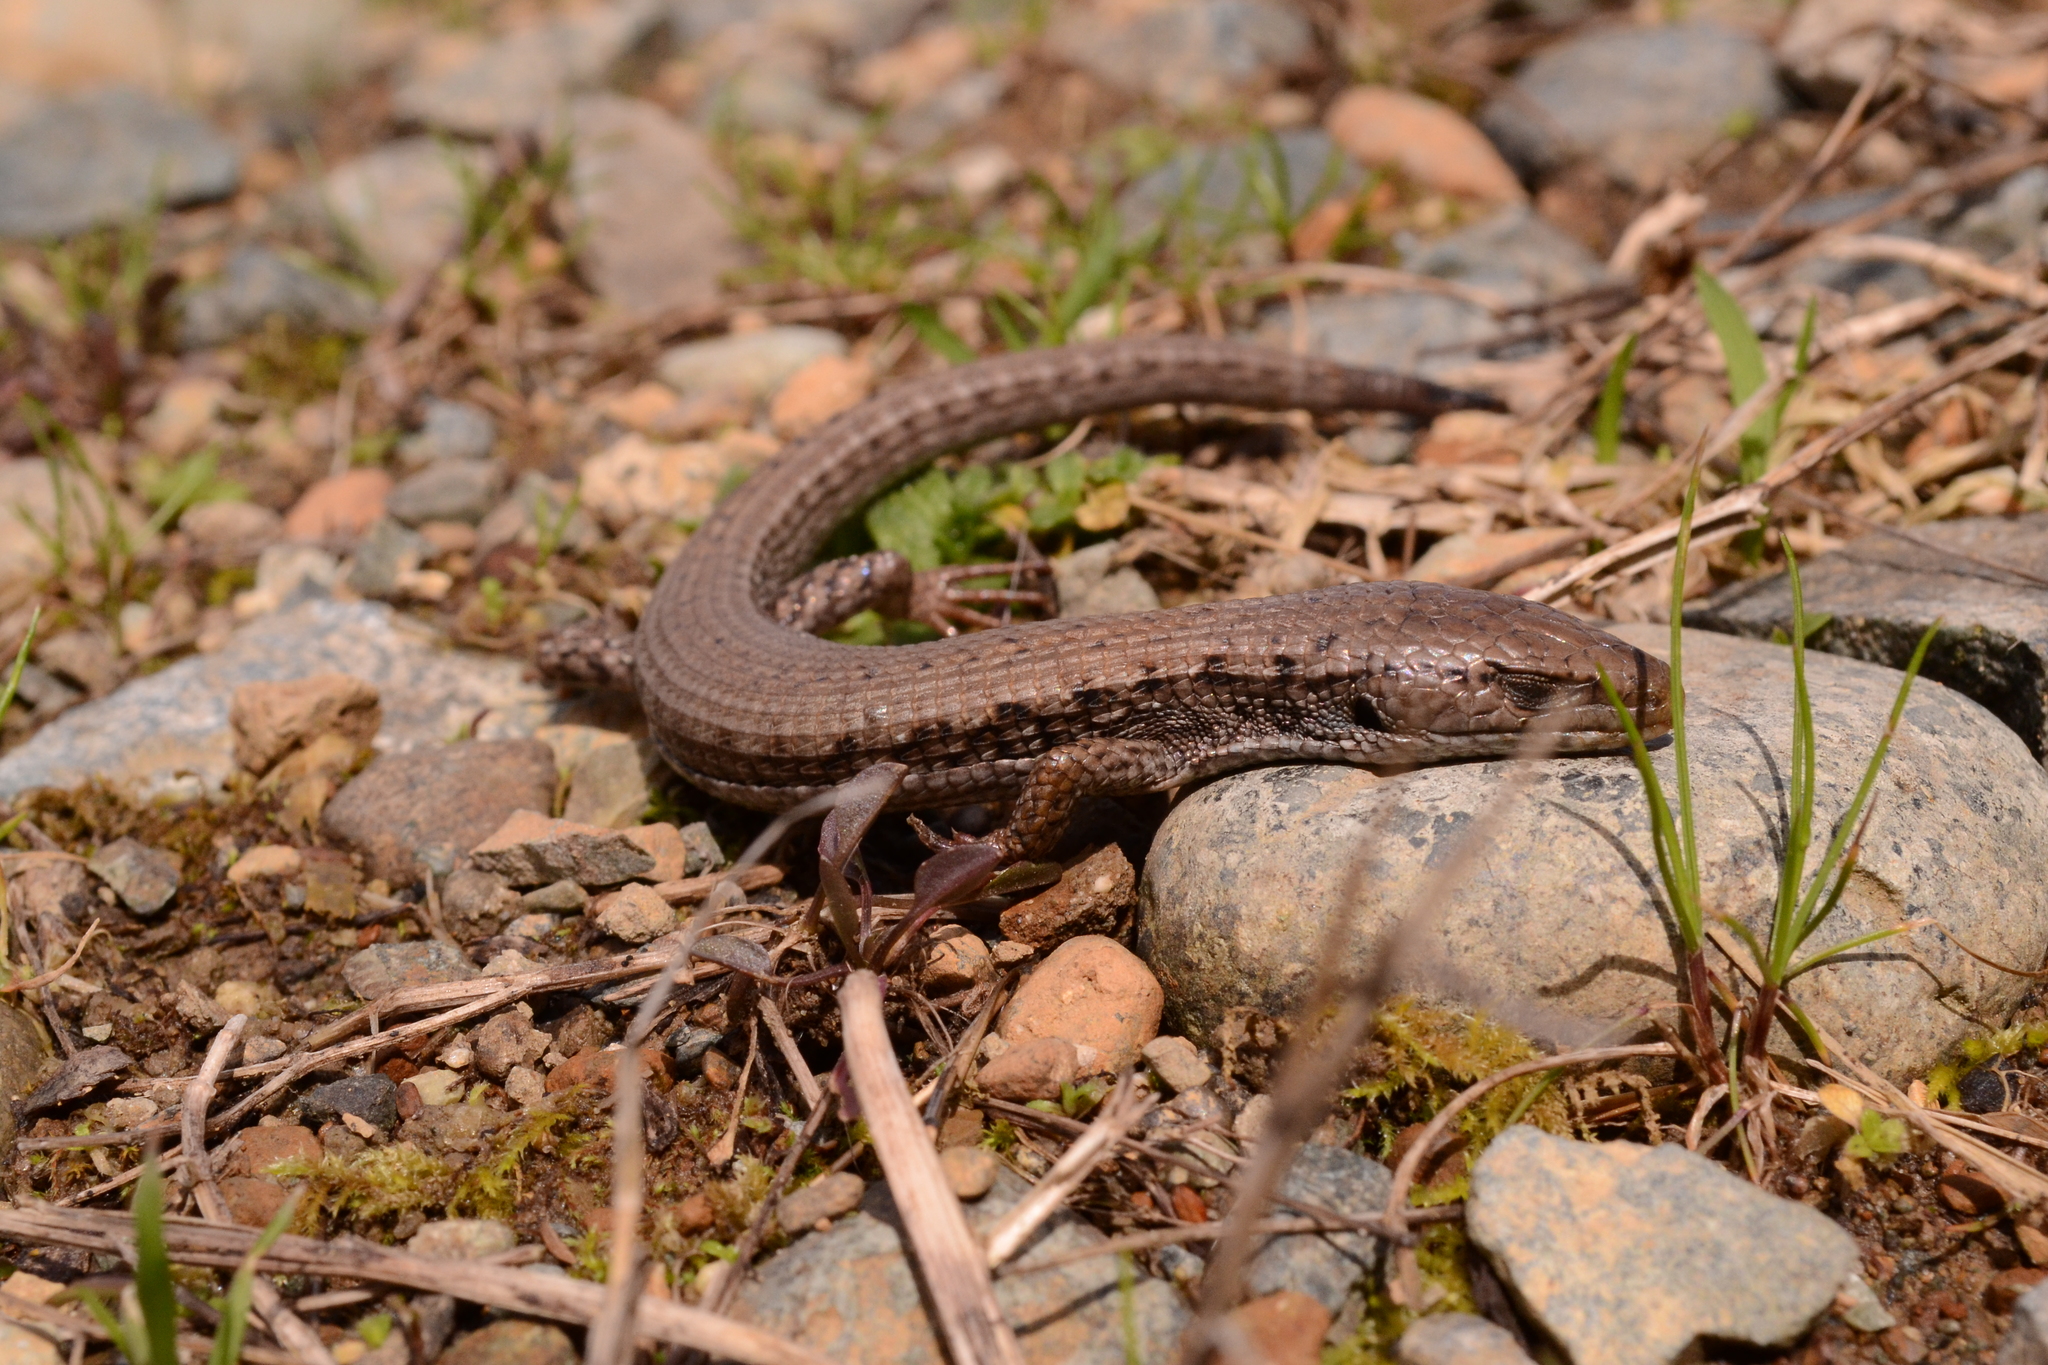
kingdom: Animalia
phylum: Chordata
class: Squamata
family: Anguidae
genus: Elgaria
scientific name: Elgaria coerulea
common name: Northern alligator lizard
